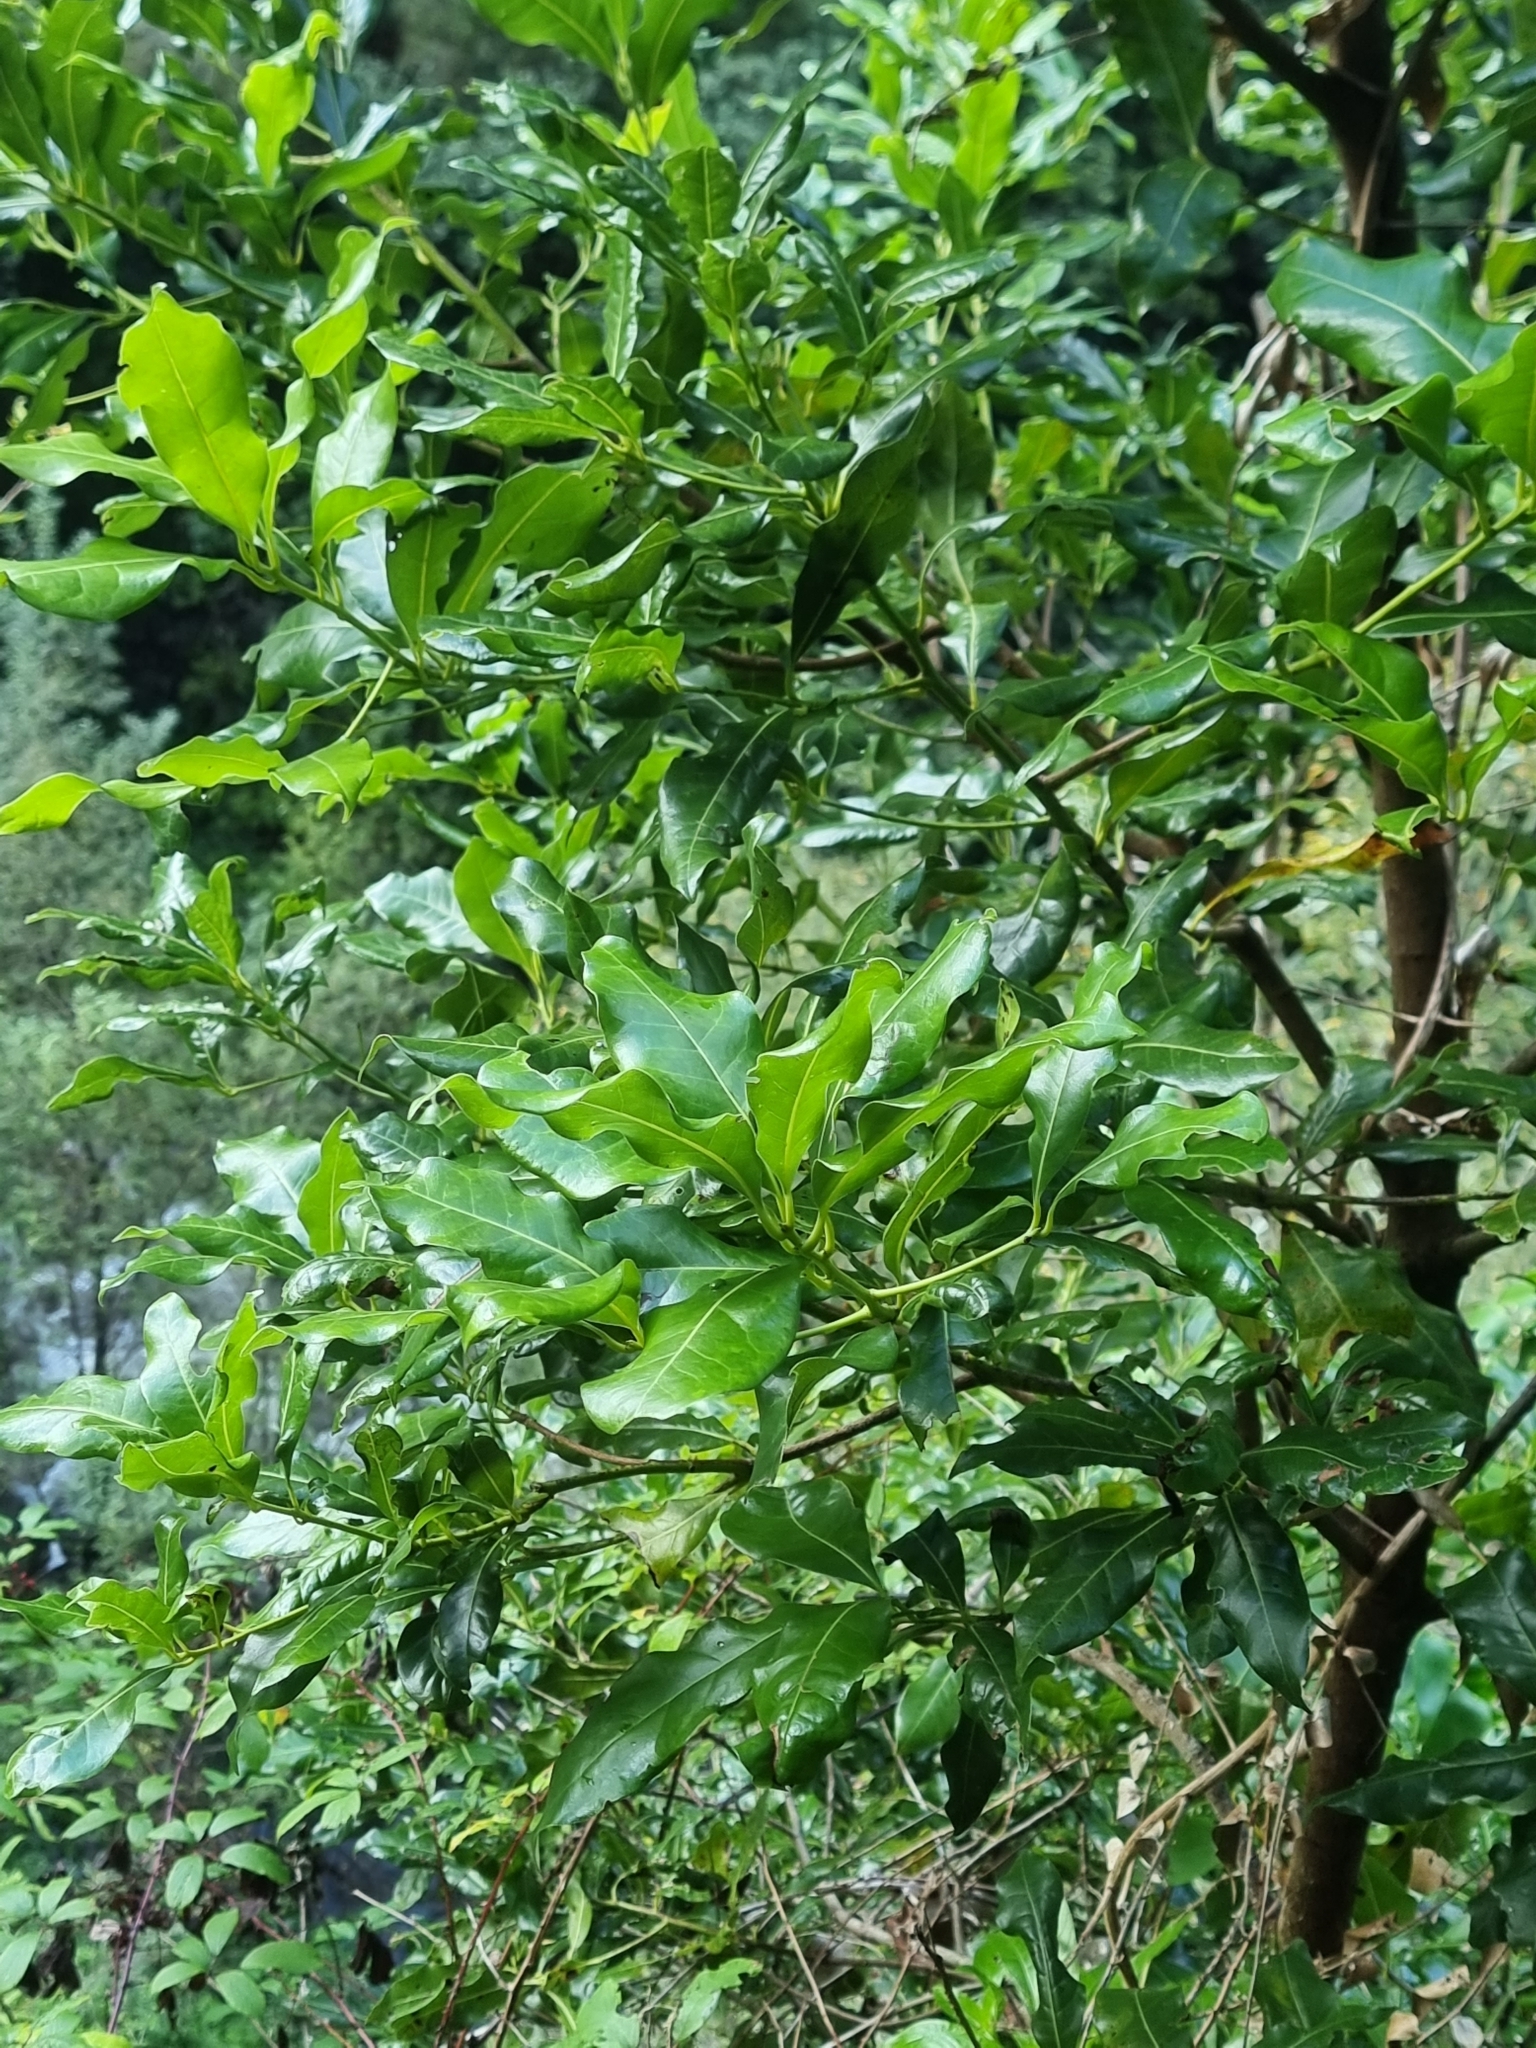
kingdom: Plantae
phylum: Tracheophyta
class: Magnoliopsida
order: Laurales
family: Lauraceae
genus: Apollonias
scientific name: Apollonias barbujana
